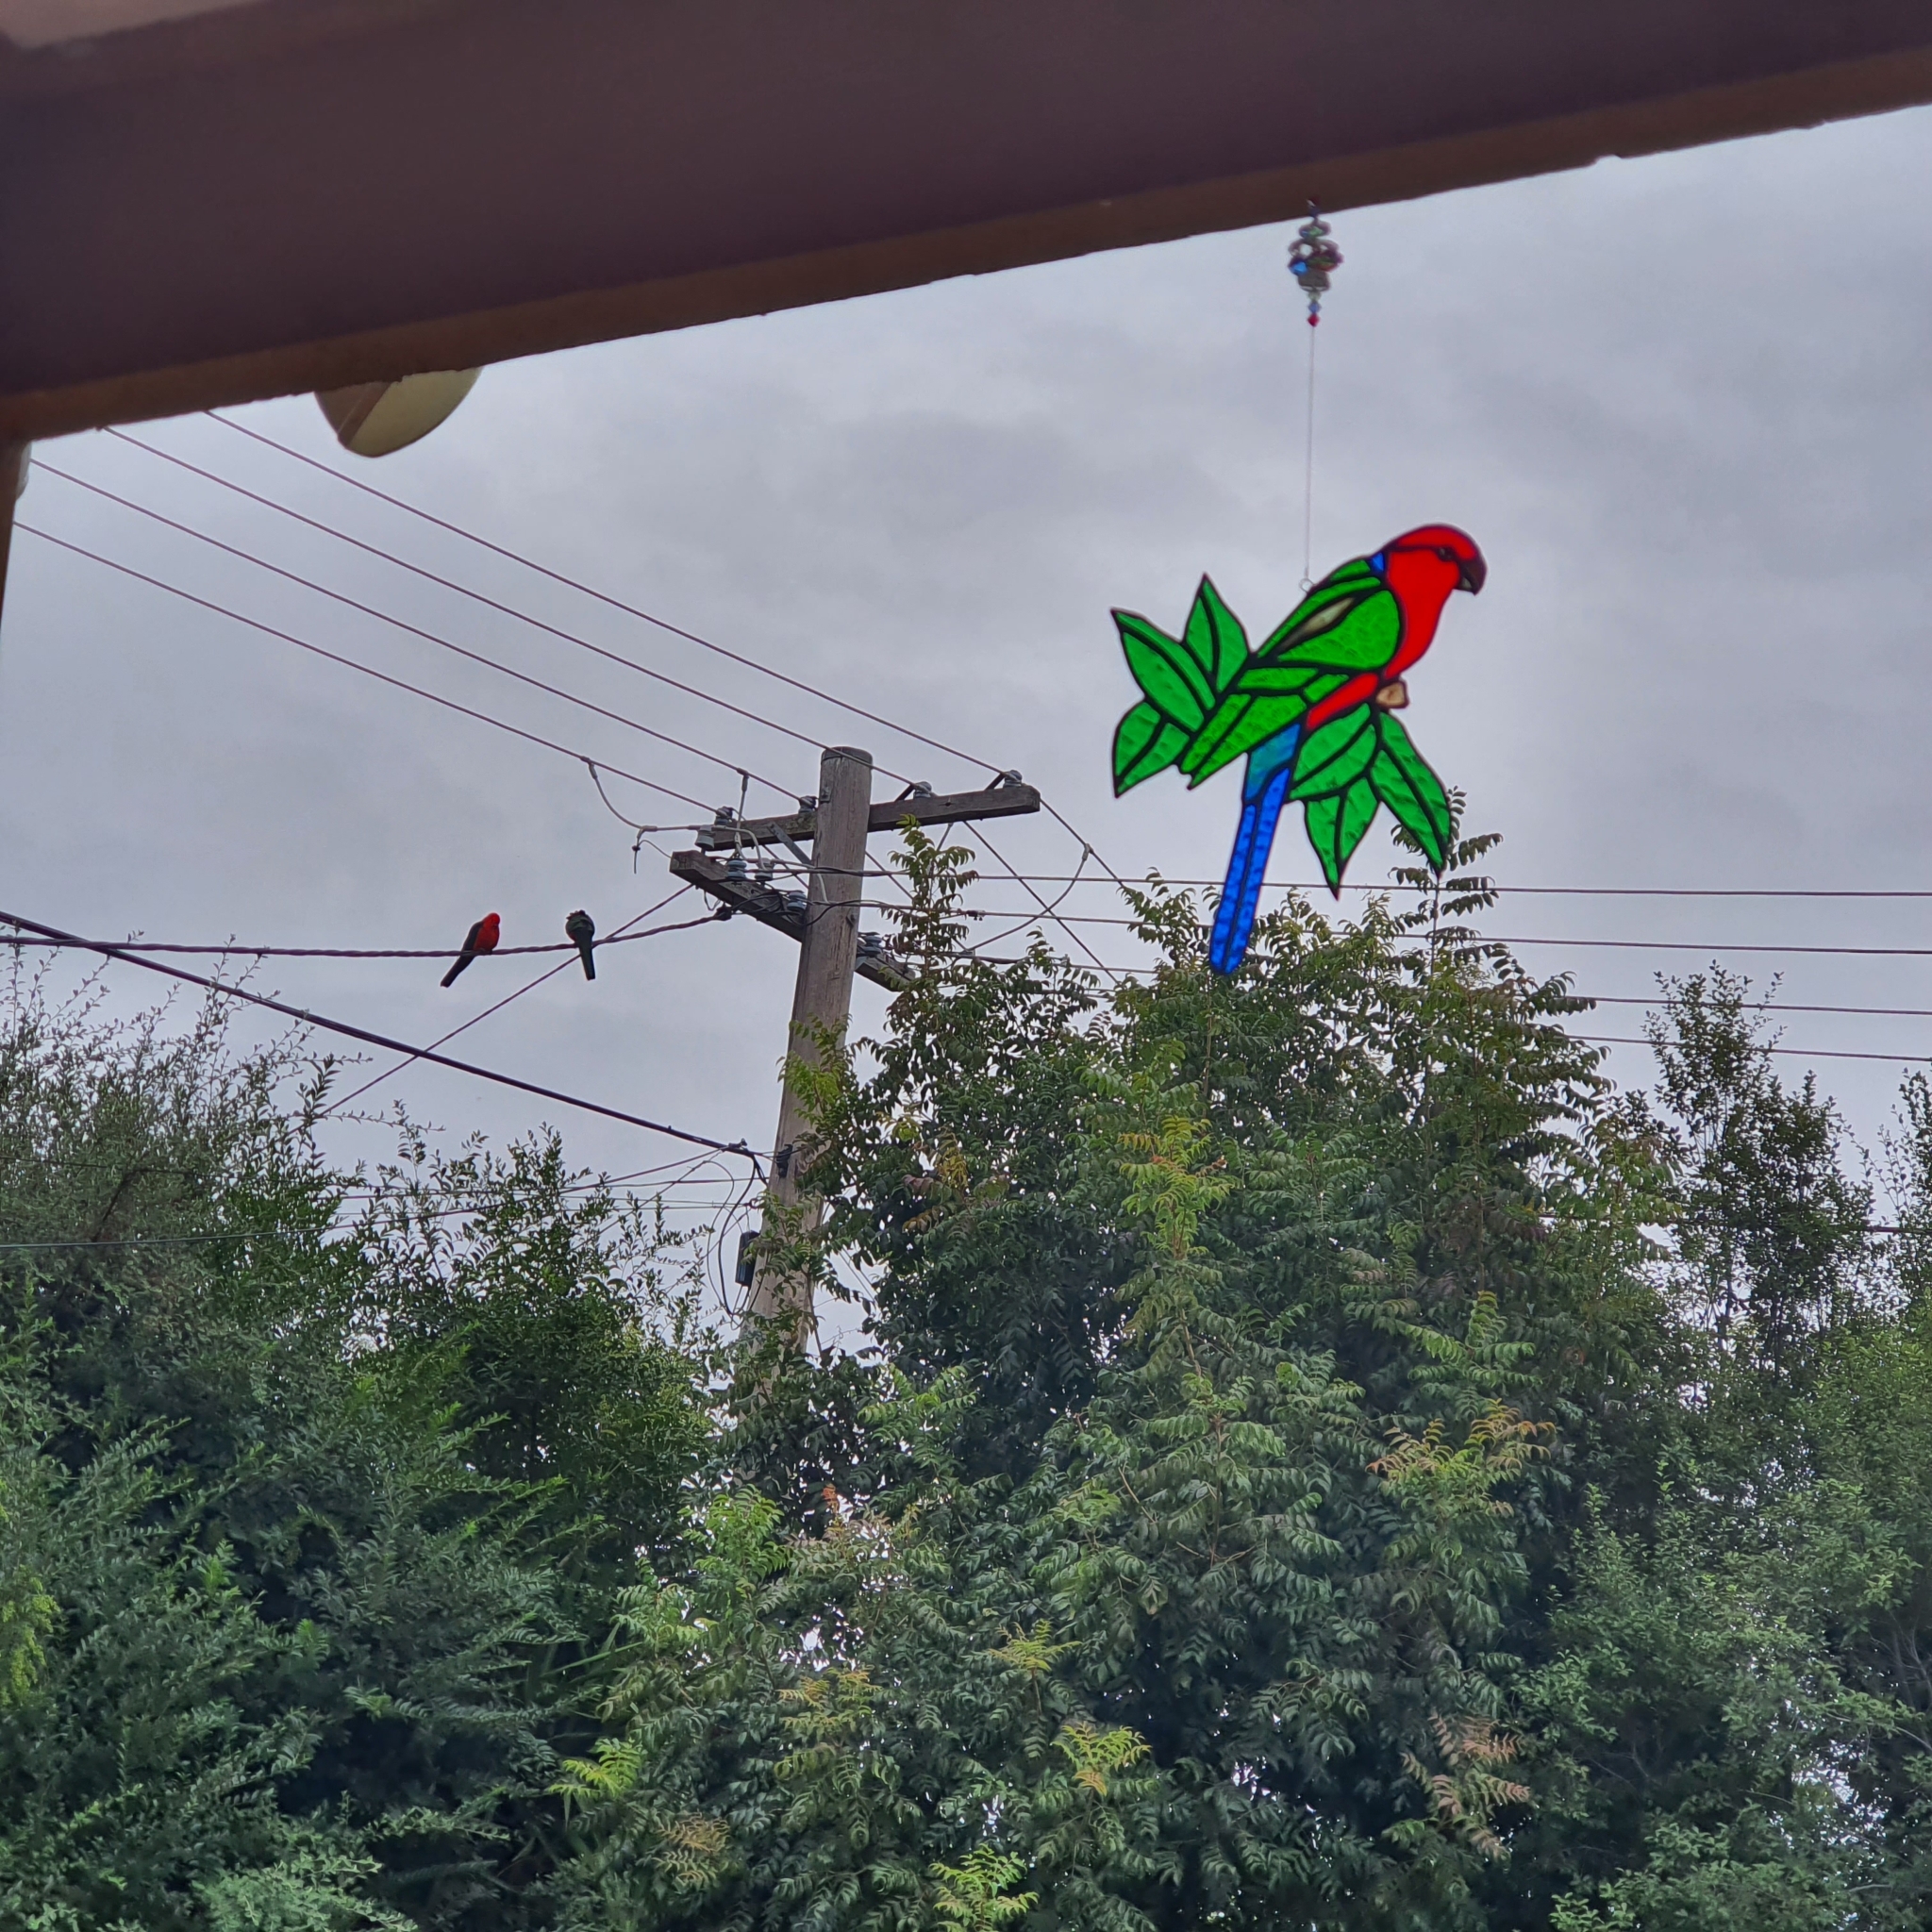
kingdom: Animalia
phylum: Chordata
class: Aves
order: Psittaciformes
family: Psittacidae
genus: Alisterus
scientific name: Alisterus scapularis
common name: Australian king parrot
